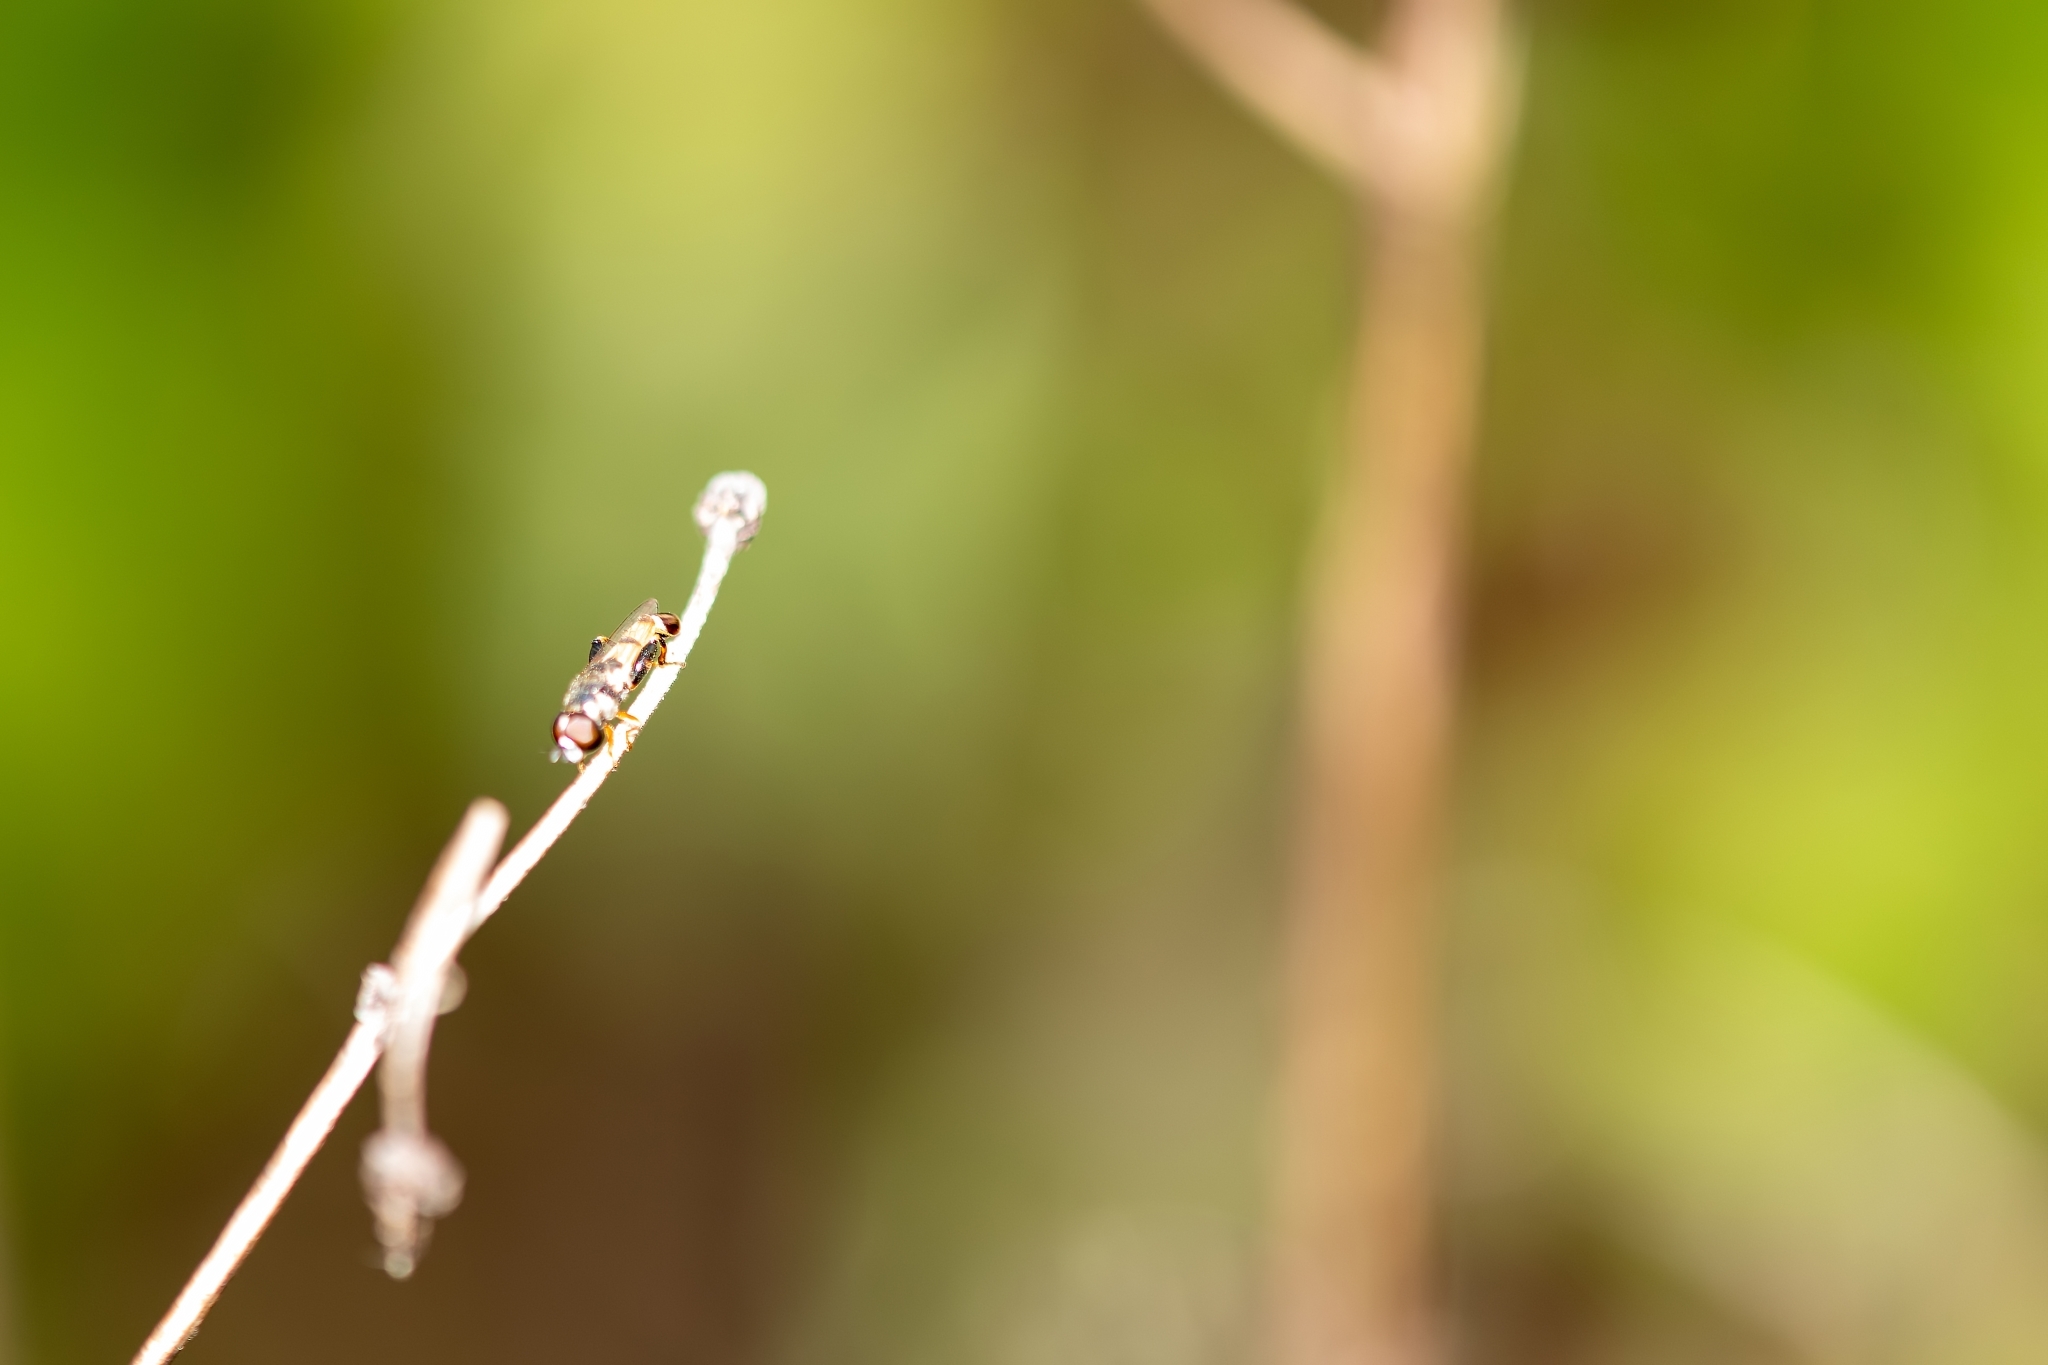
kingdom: Animalia
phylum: Arthropoda
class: Insecta
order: Diptera
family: Syrphidae
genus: Syritta
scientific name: Syritta flaviventris
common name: Syrphid fly
